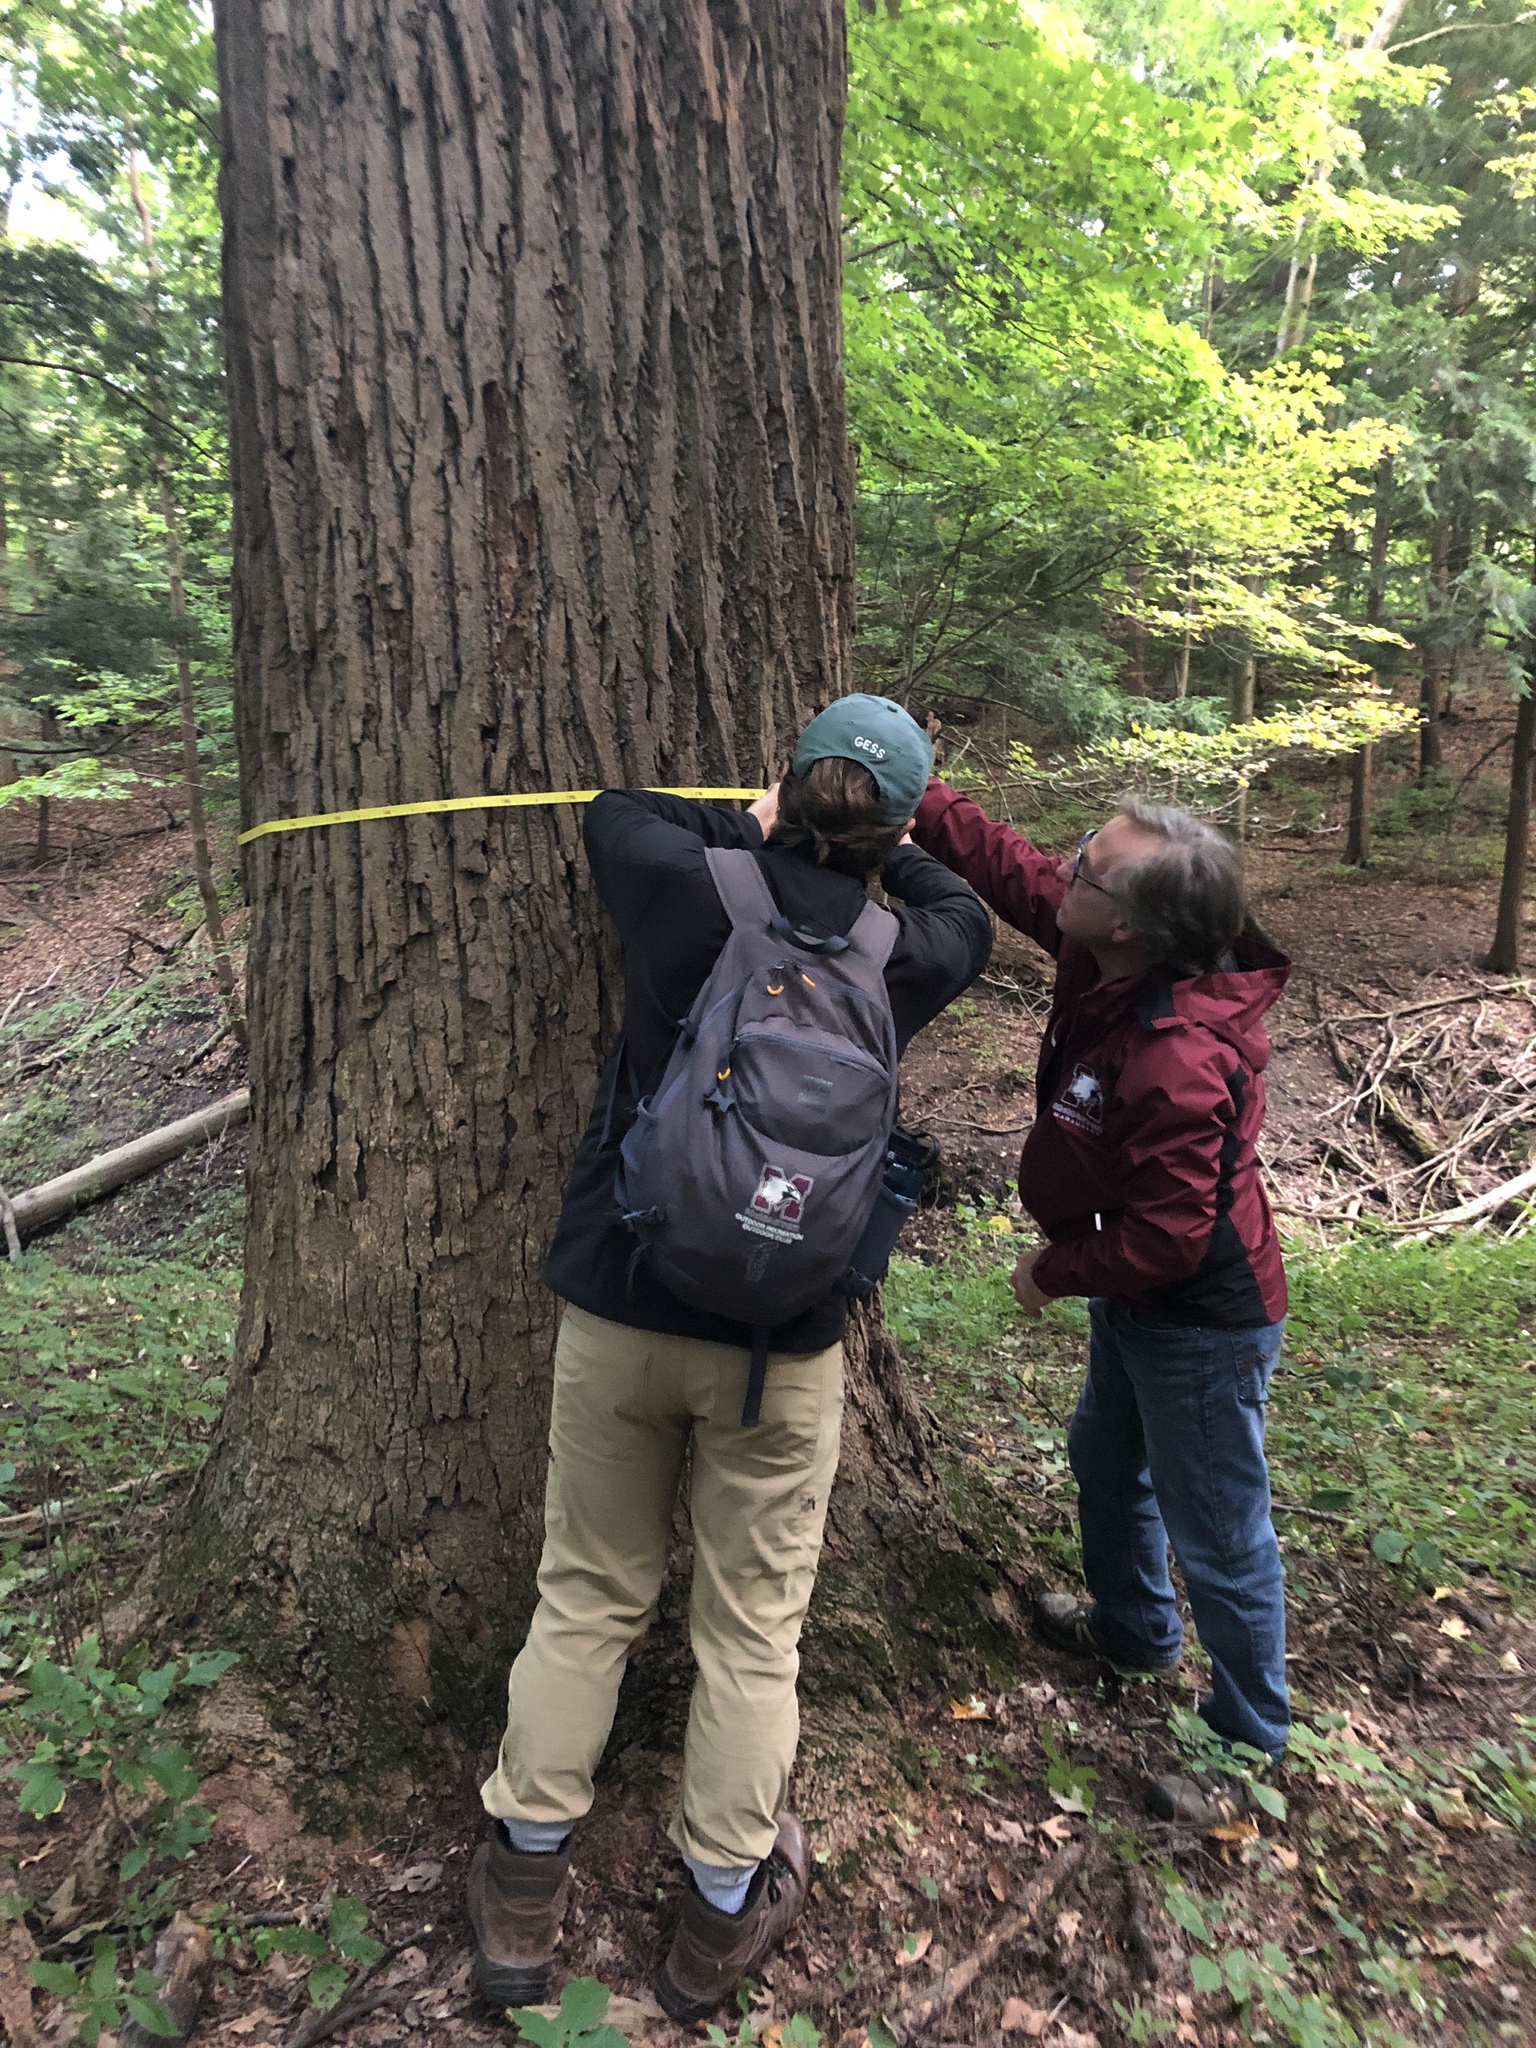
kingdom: Plantae
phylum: Tracheophyta
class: Magnoliopsida
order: Magnoliales
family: Magnoliaceae
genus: Liriodendron
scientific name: Liriodendron tulipifera
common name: Tulip tree
